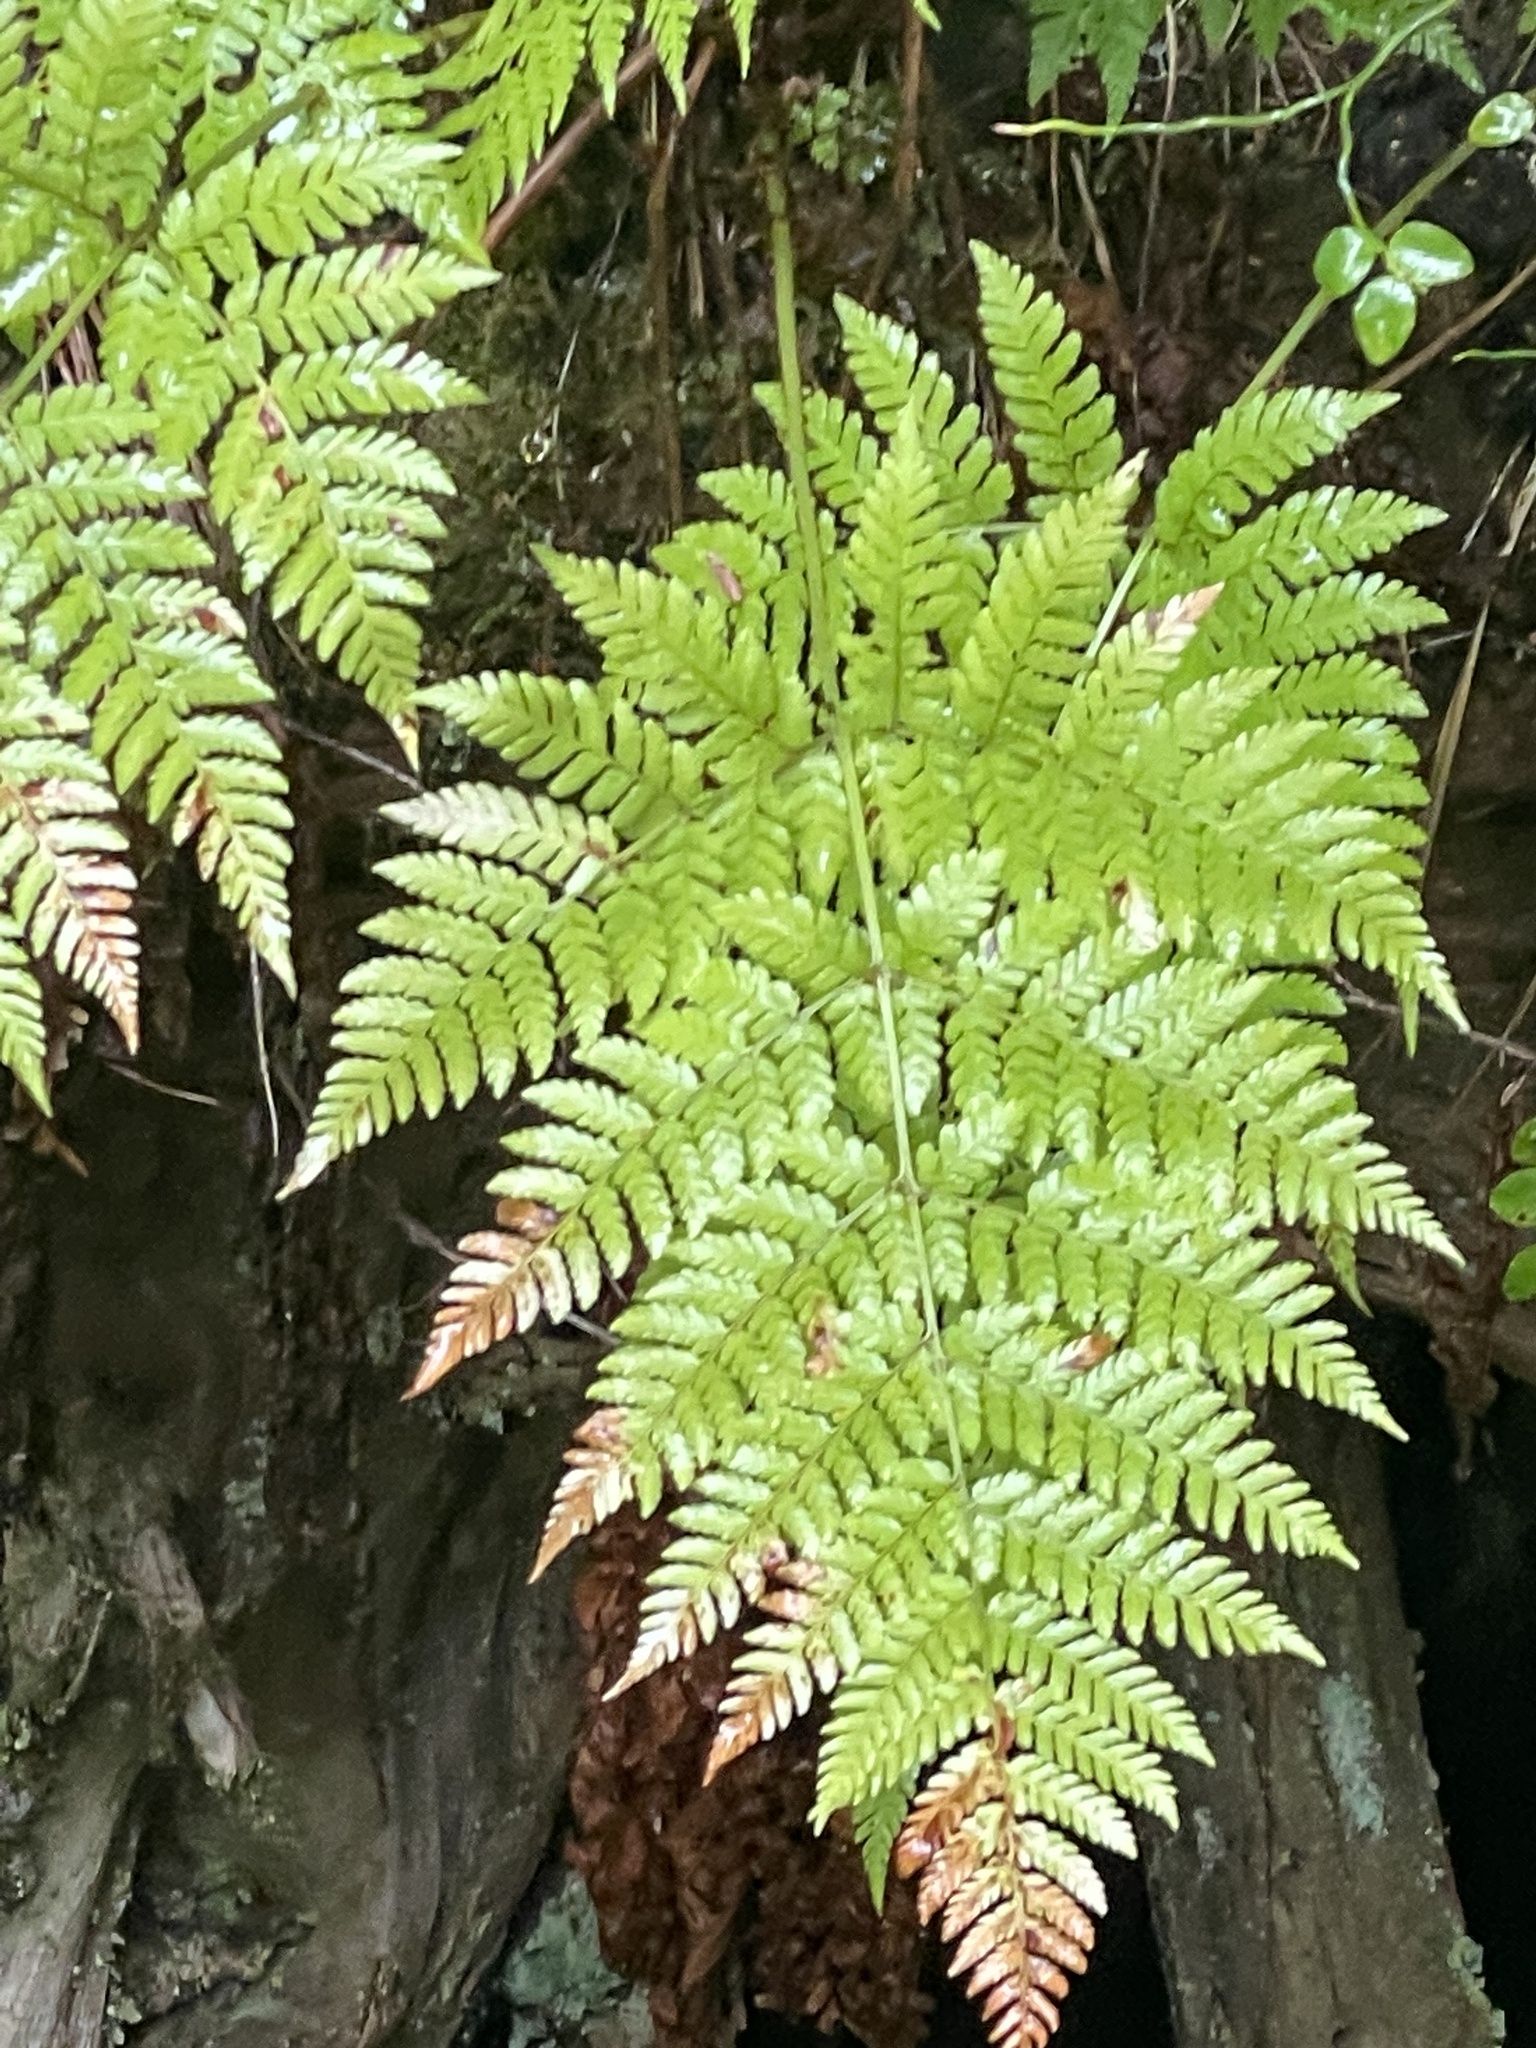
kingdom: Plantae
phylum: Tracheophyta
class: Polypodiopsida
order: Polypodiales
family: Dryopteridaceae
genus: Dryopteris
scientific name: Dryopteris expansa
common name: Northern buckler fern
